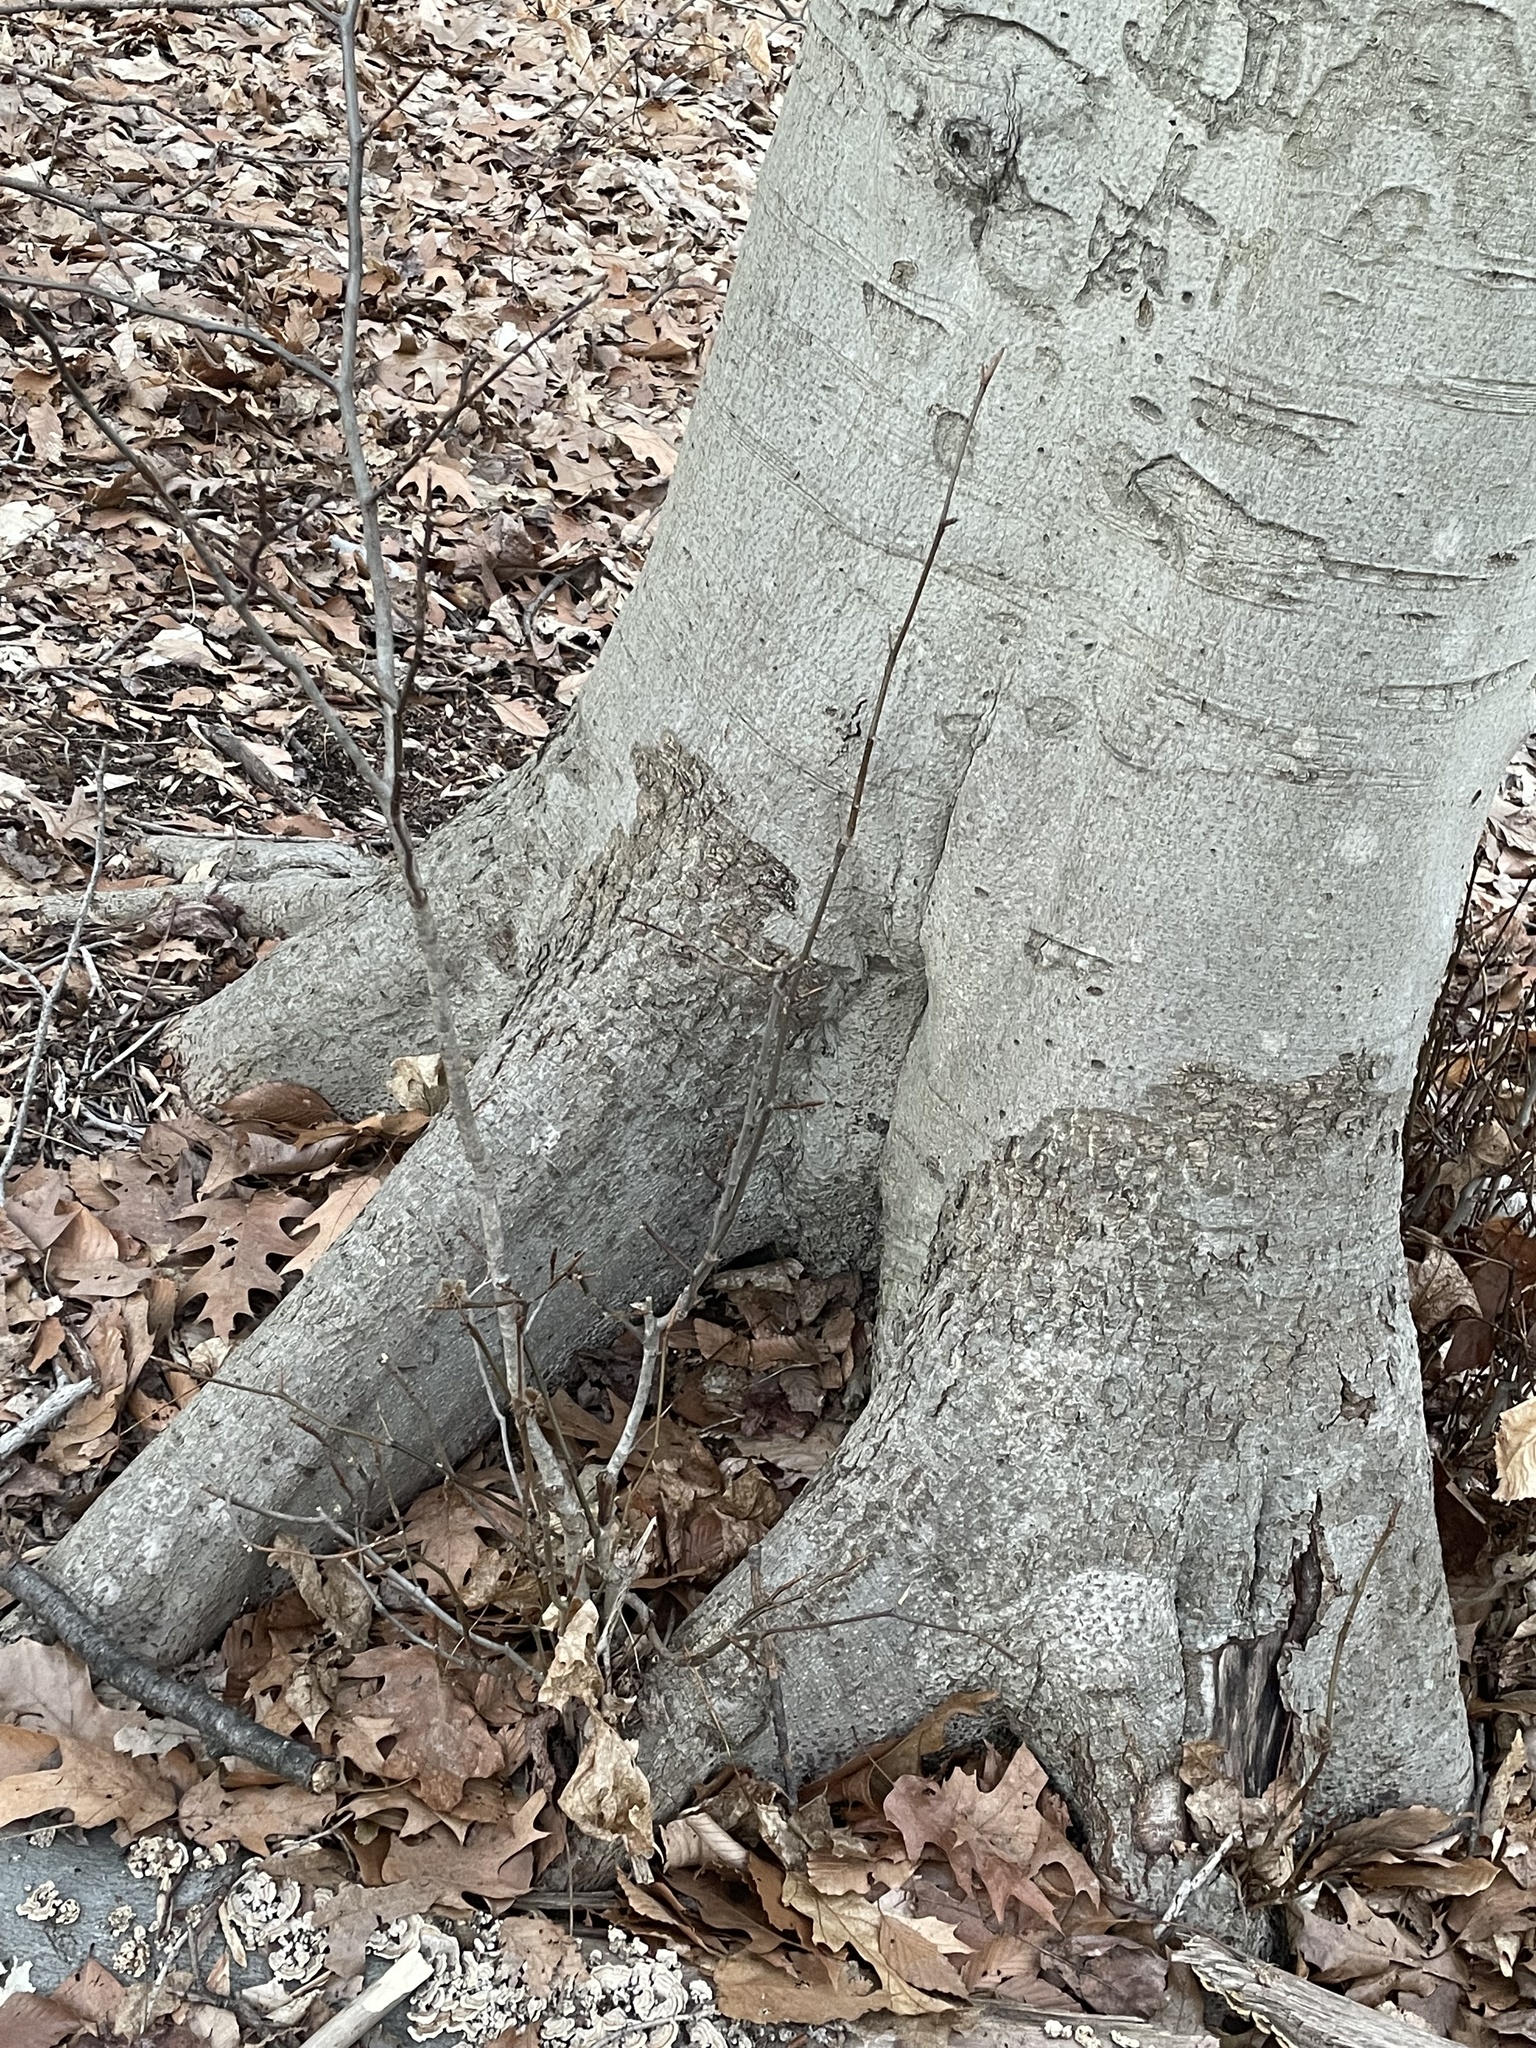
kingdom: Plantae
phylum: Tracheophyta
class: Magnoliopsida
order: Fagales
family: Fagaceae
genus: Fagus
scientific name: Fagus grandifolia
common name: American beech
